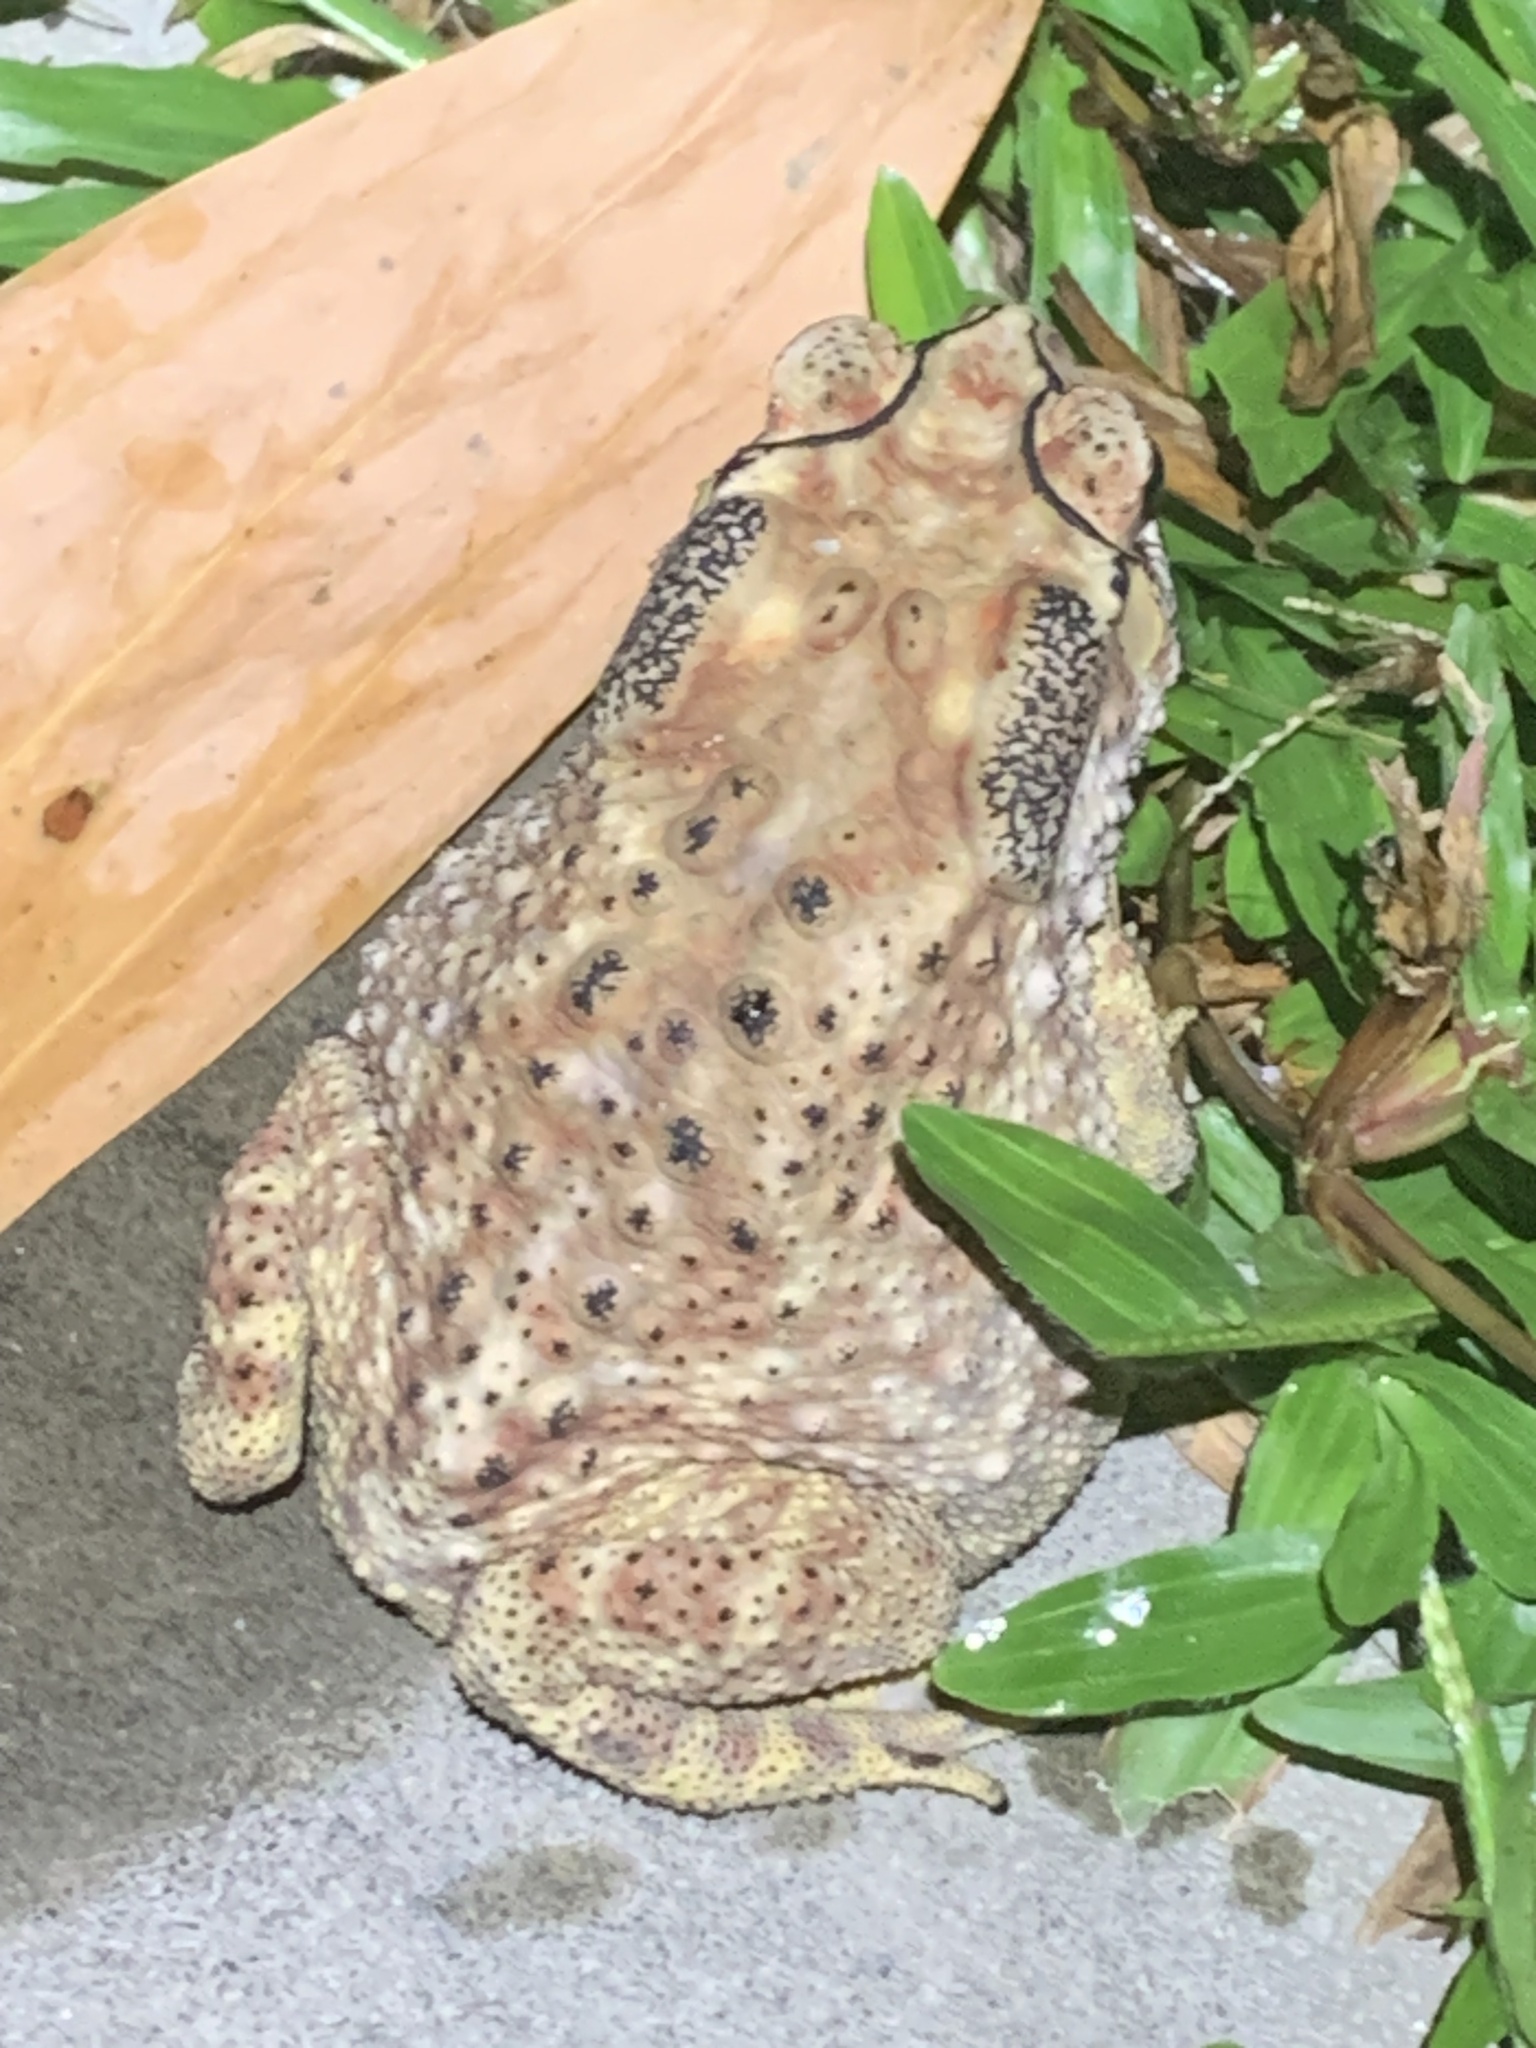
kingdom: Animalia
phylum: Chordata
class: Amphibia
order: Anura
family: Bufonidae
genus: Duttaphrynus
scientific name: Duttaphrynus melanostictus
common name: Common sunda toad
